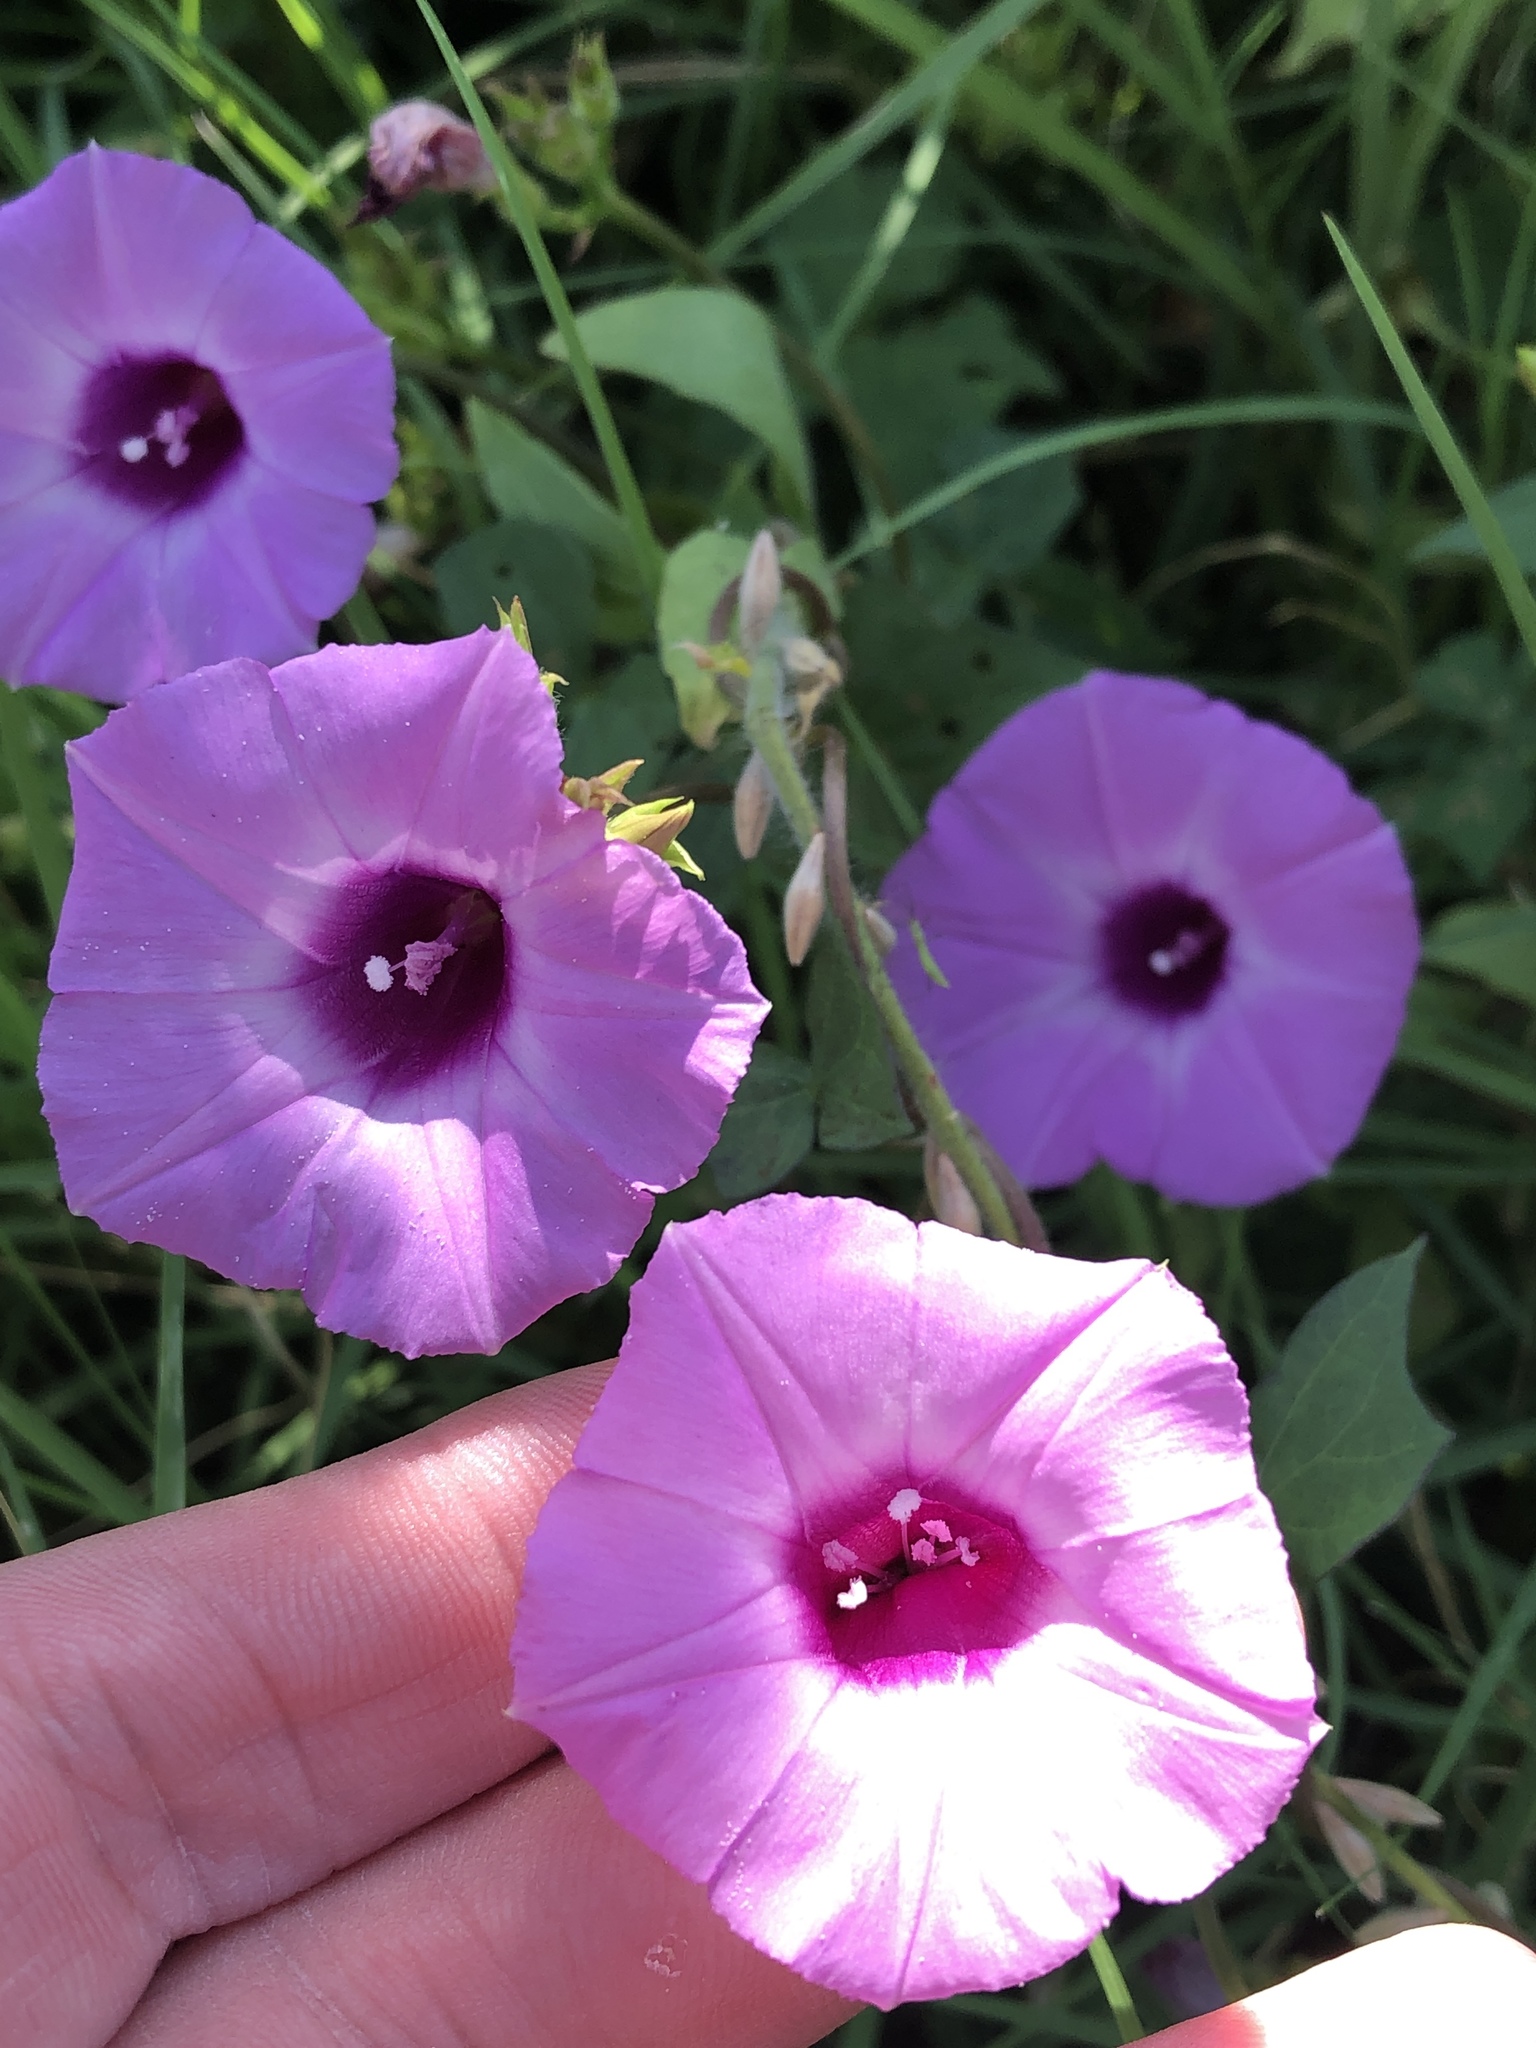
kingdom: Plantae
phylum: Tracheophyta
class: Magnoliopsida
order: Solanales
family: Convolvulaceae
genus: Ipomoea
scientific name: Ipomoea cordatotriloba
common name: Cotton morning glory
